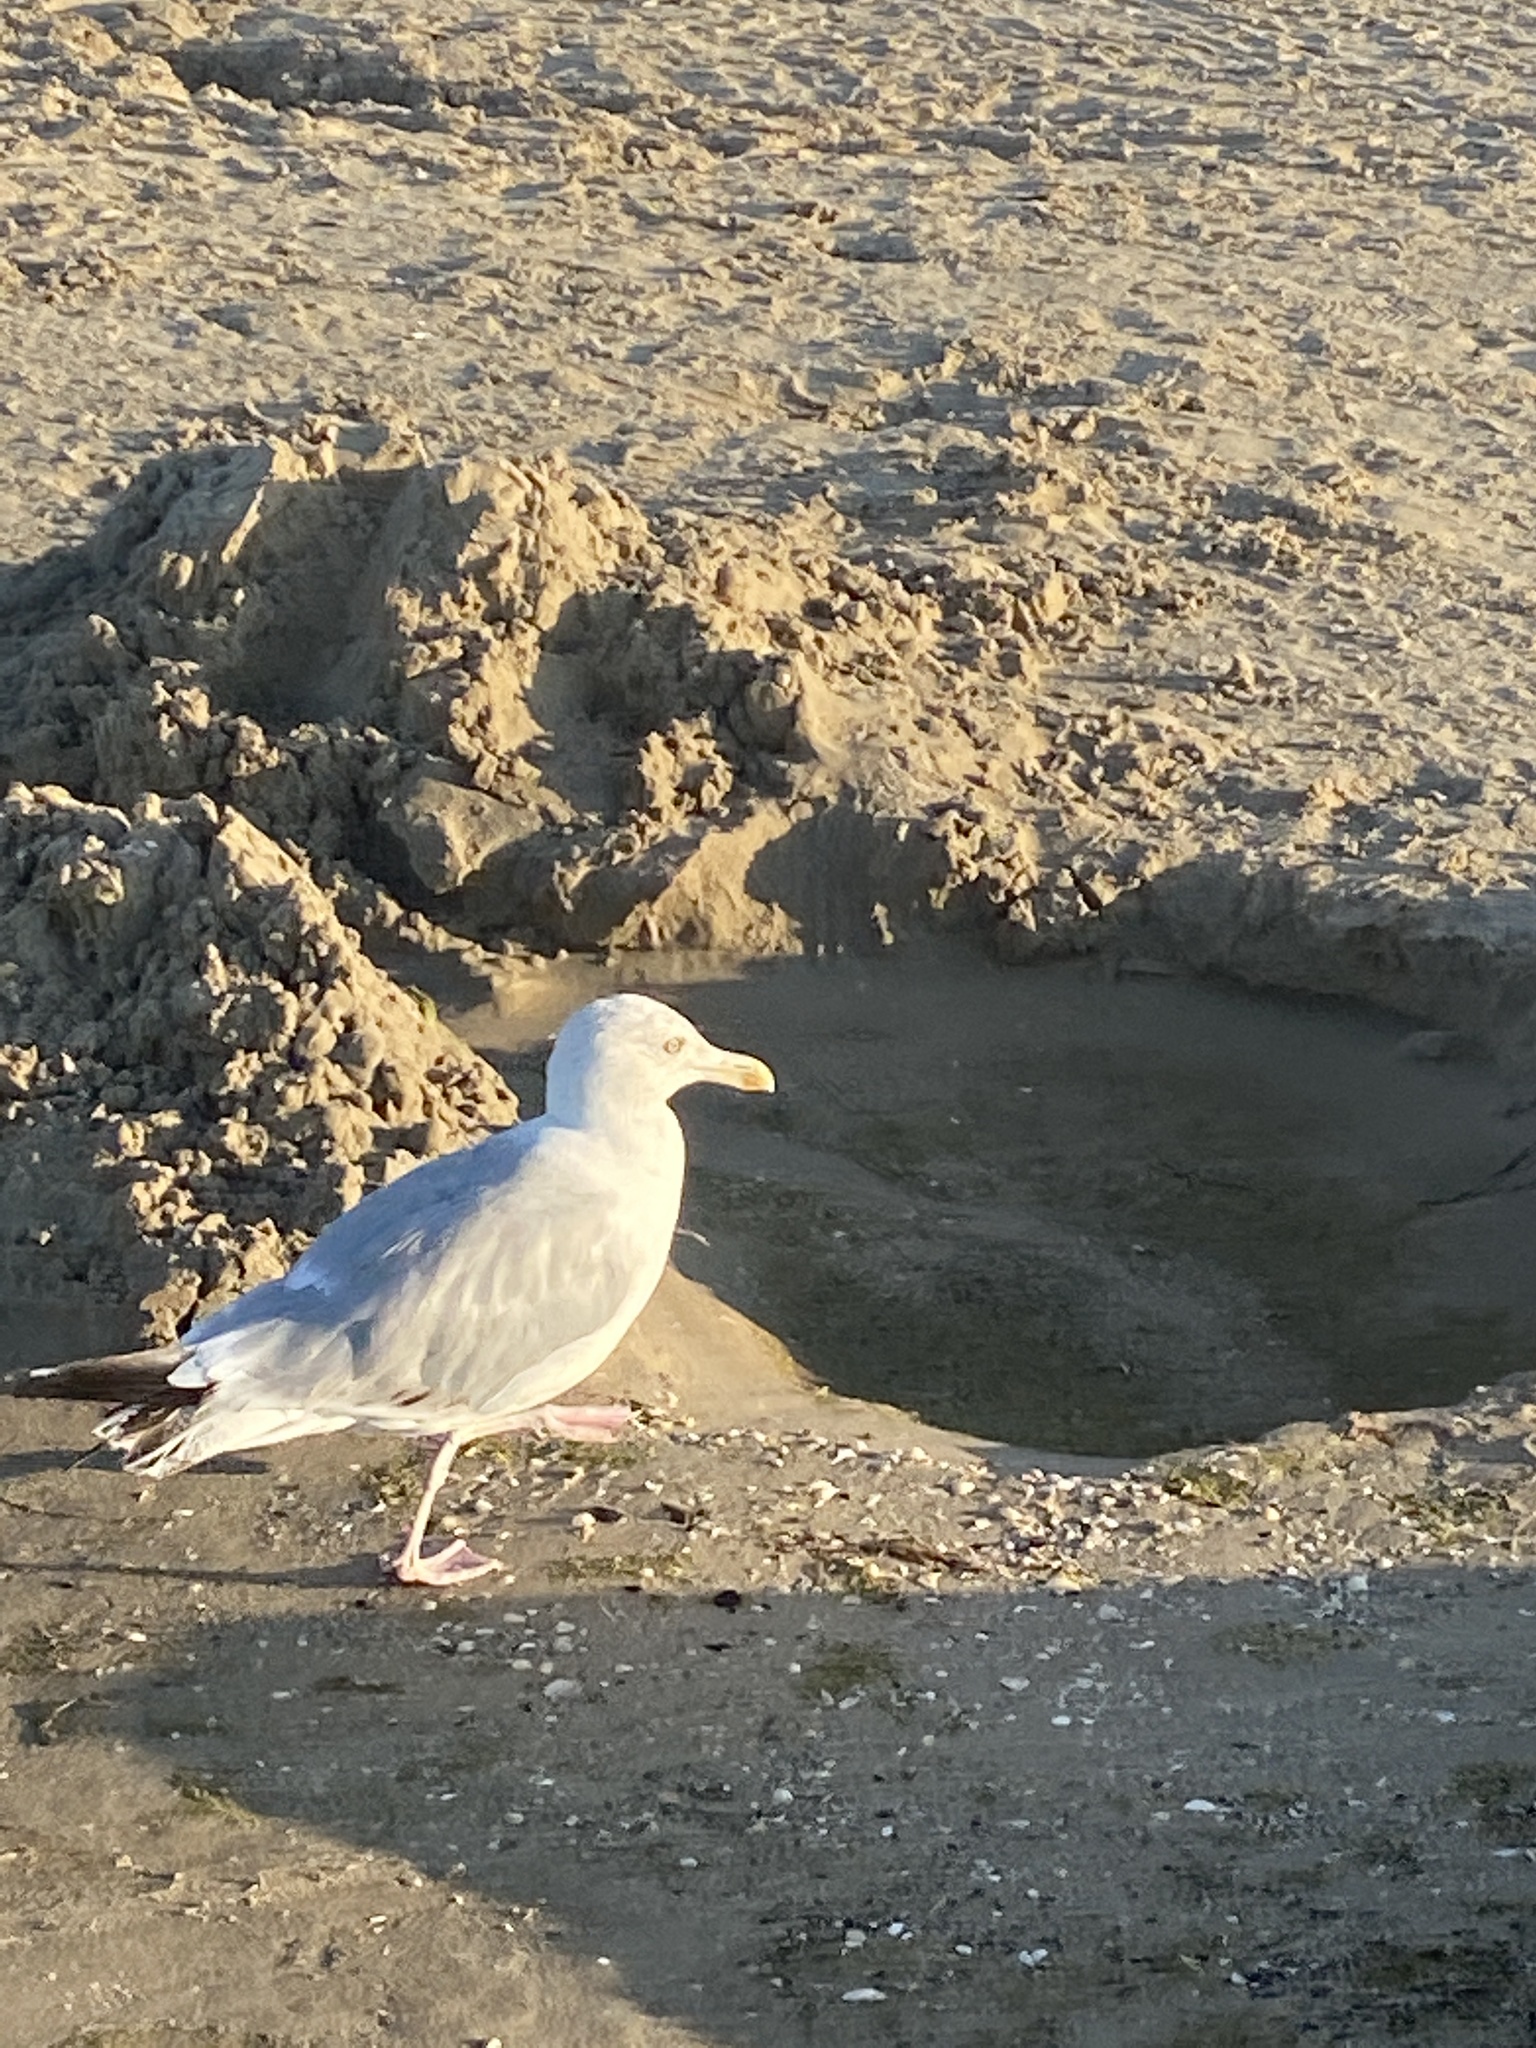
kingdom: Animalia
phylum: Chordata
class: Aves
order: Charadriiformes
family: Laridae
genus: Larus
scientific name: Larus argentatus
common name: Herring gull
